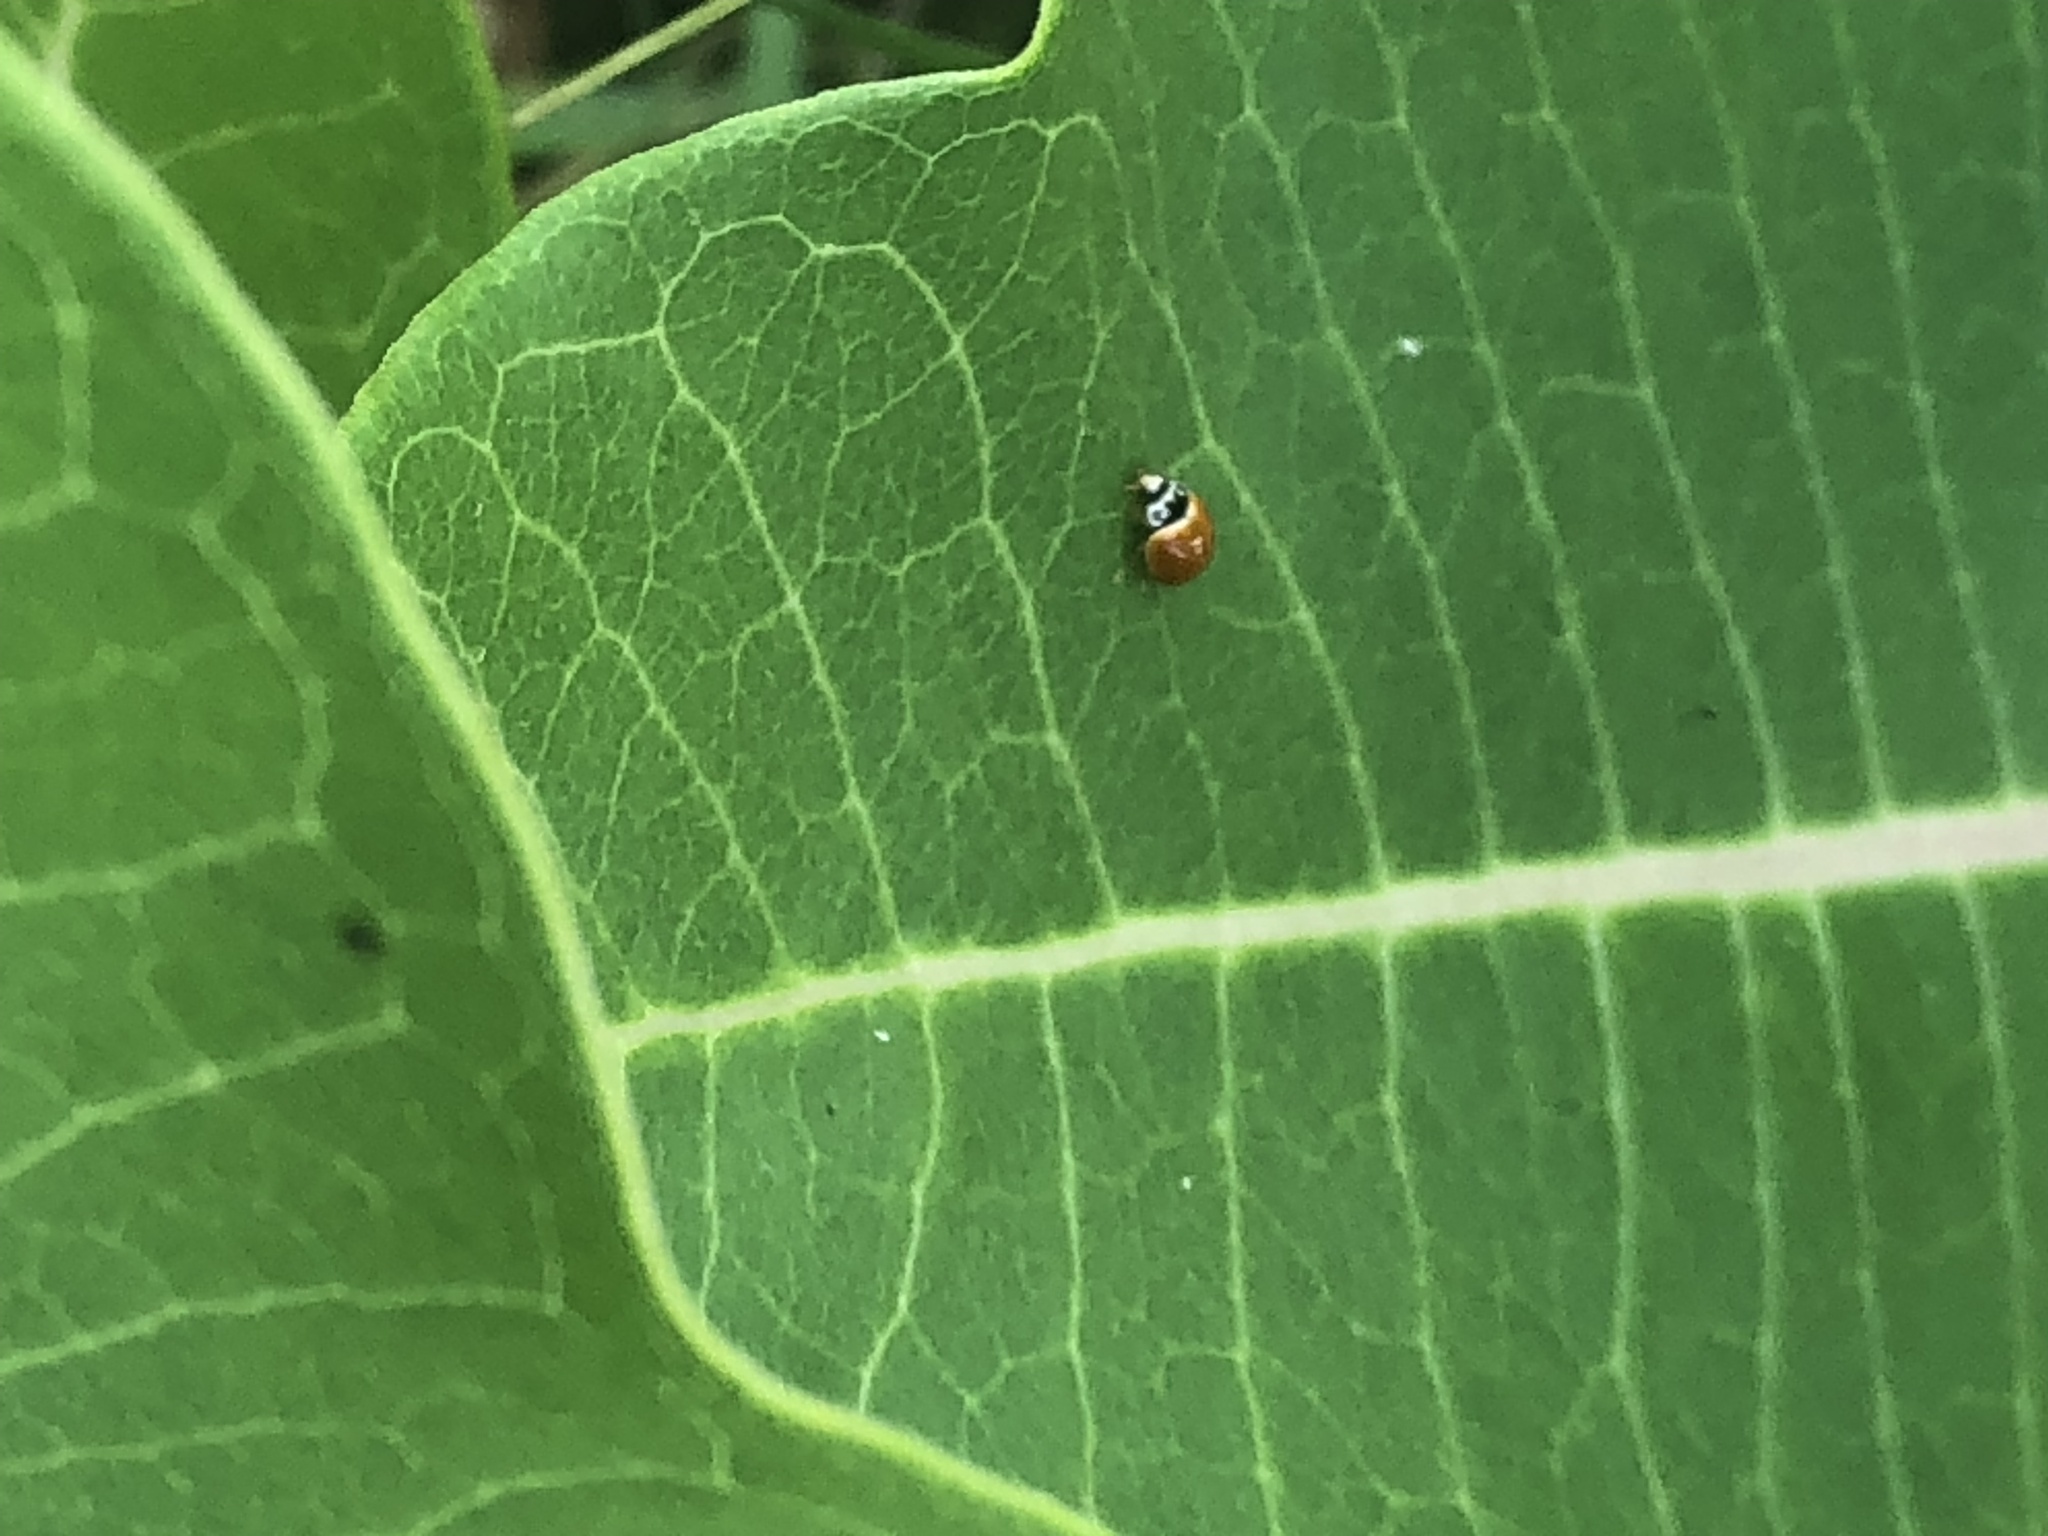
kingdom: Animalia
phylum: Arthropoda
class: Insecta
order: Coleoptera
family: Coccinellidae
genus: Cycloneda
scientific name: Cycloneda munda
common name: Polished lady beetle
